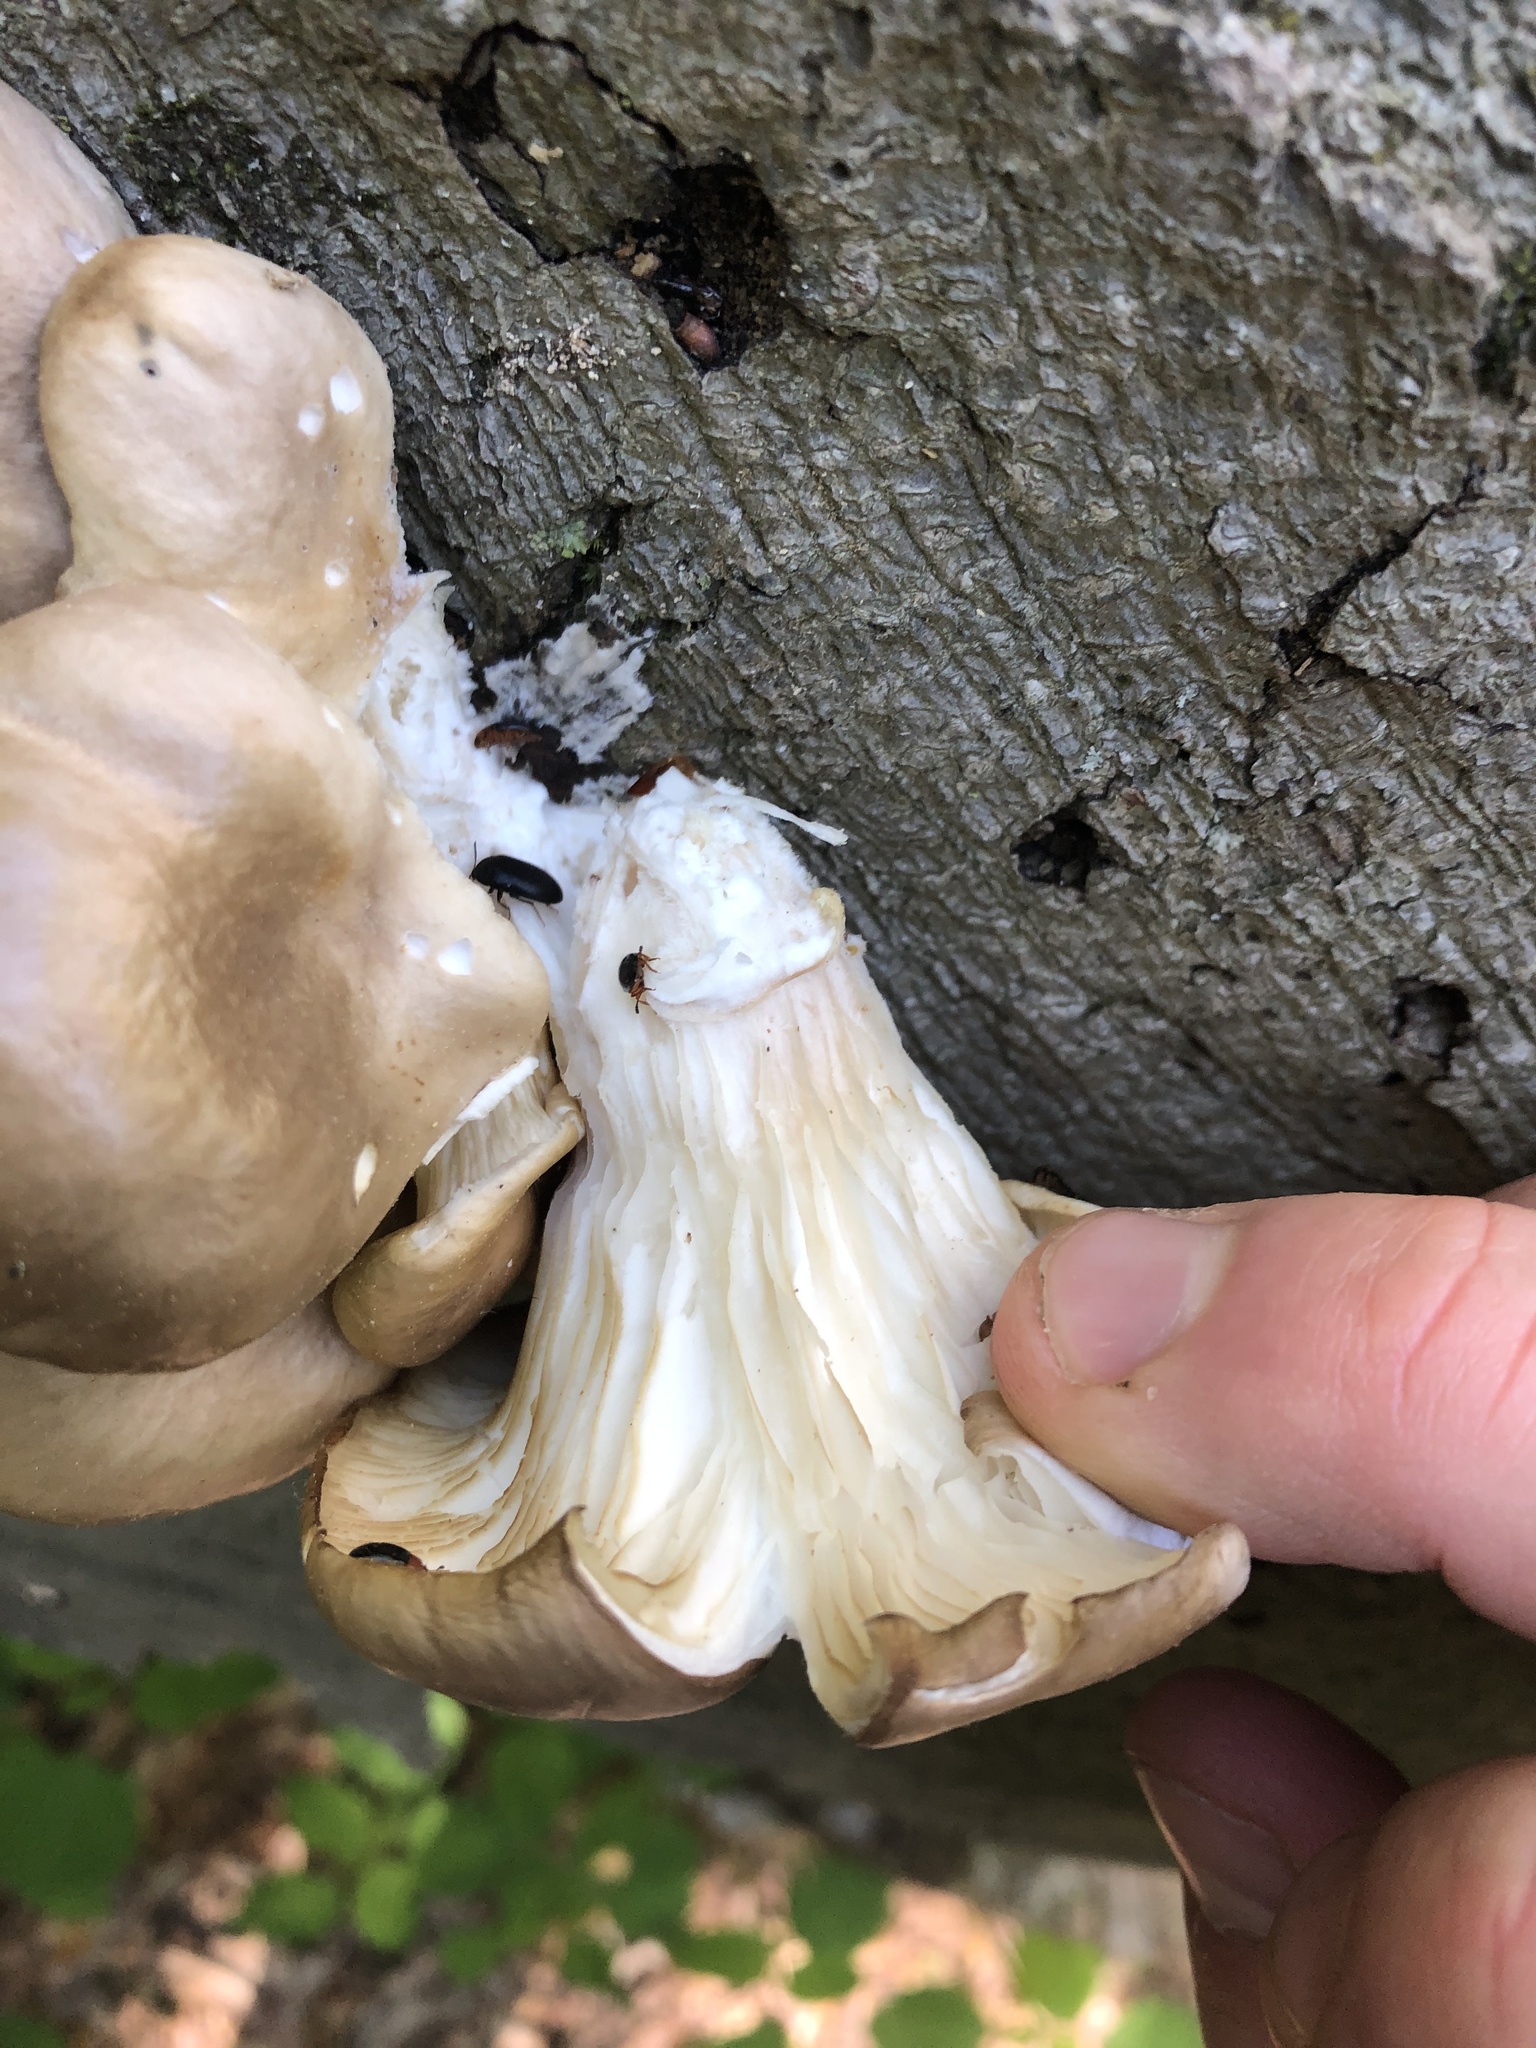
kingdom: Fungi
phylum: Basidiomycota
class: Agaricomycetes
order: Agaricales
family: Pleurotaceae
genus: Pleurotus
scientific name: Pleurotus ostreatus
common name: Oyster mushroom
